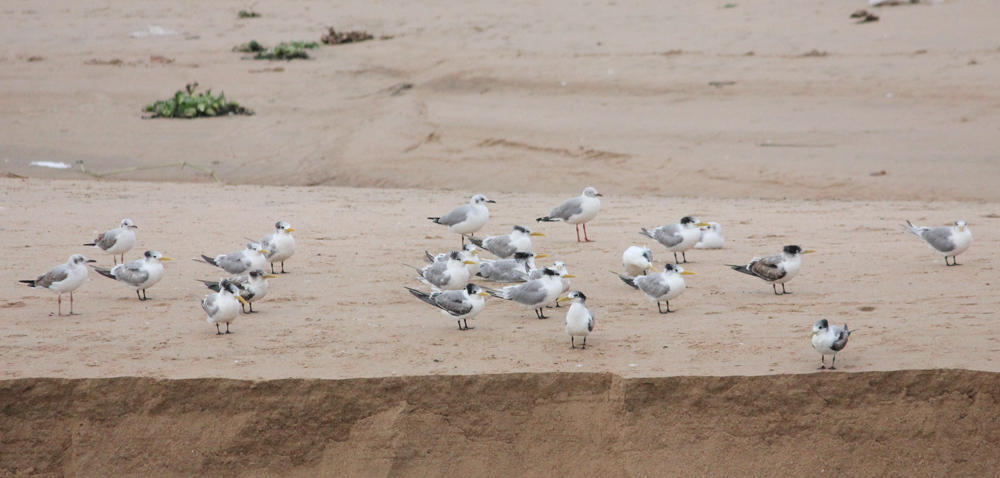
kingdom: Animalia
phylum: Chordata
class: Aves
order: Charadriiformes
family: Laridae
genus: Thalasseus
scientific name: Thalasseus bergii
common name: Greater crested tern
